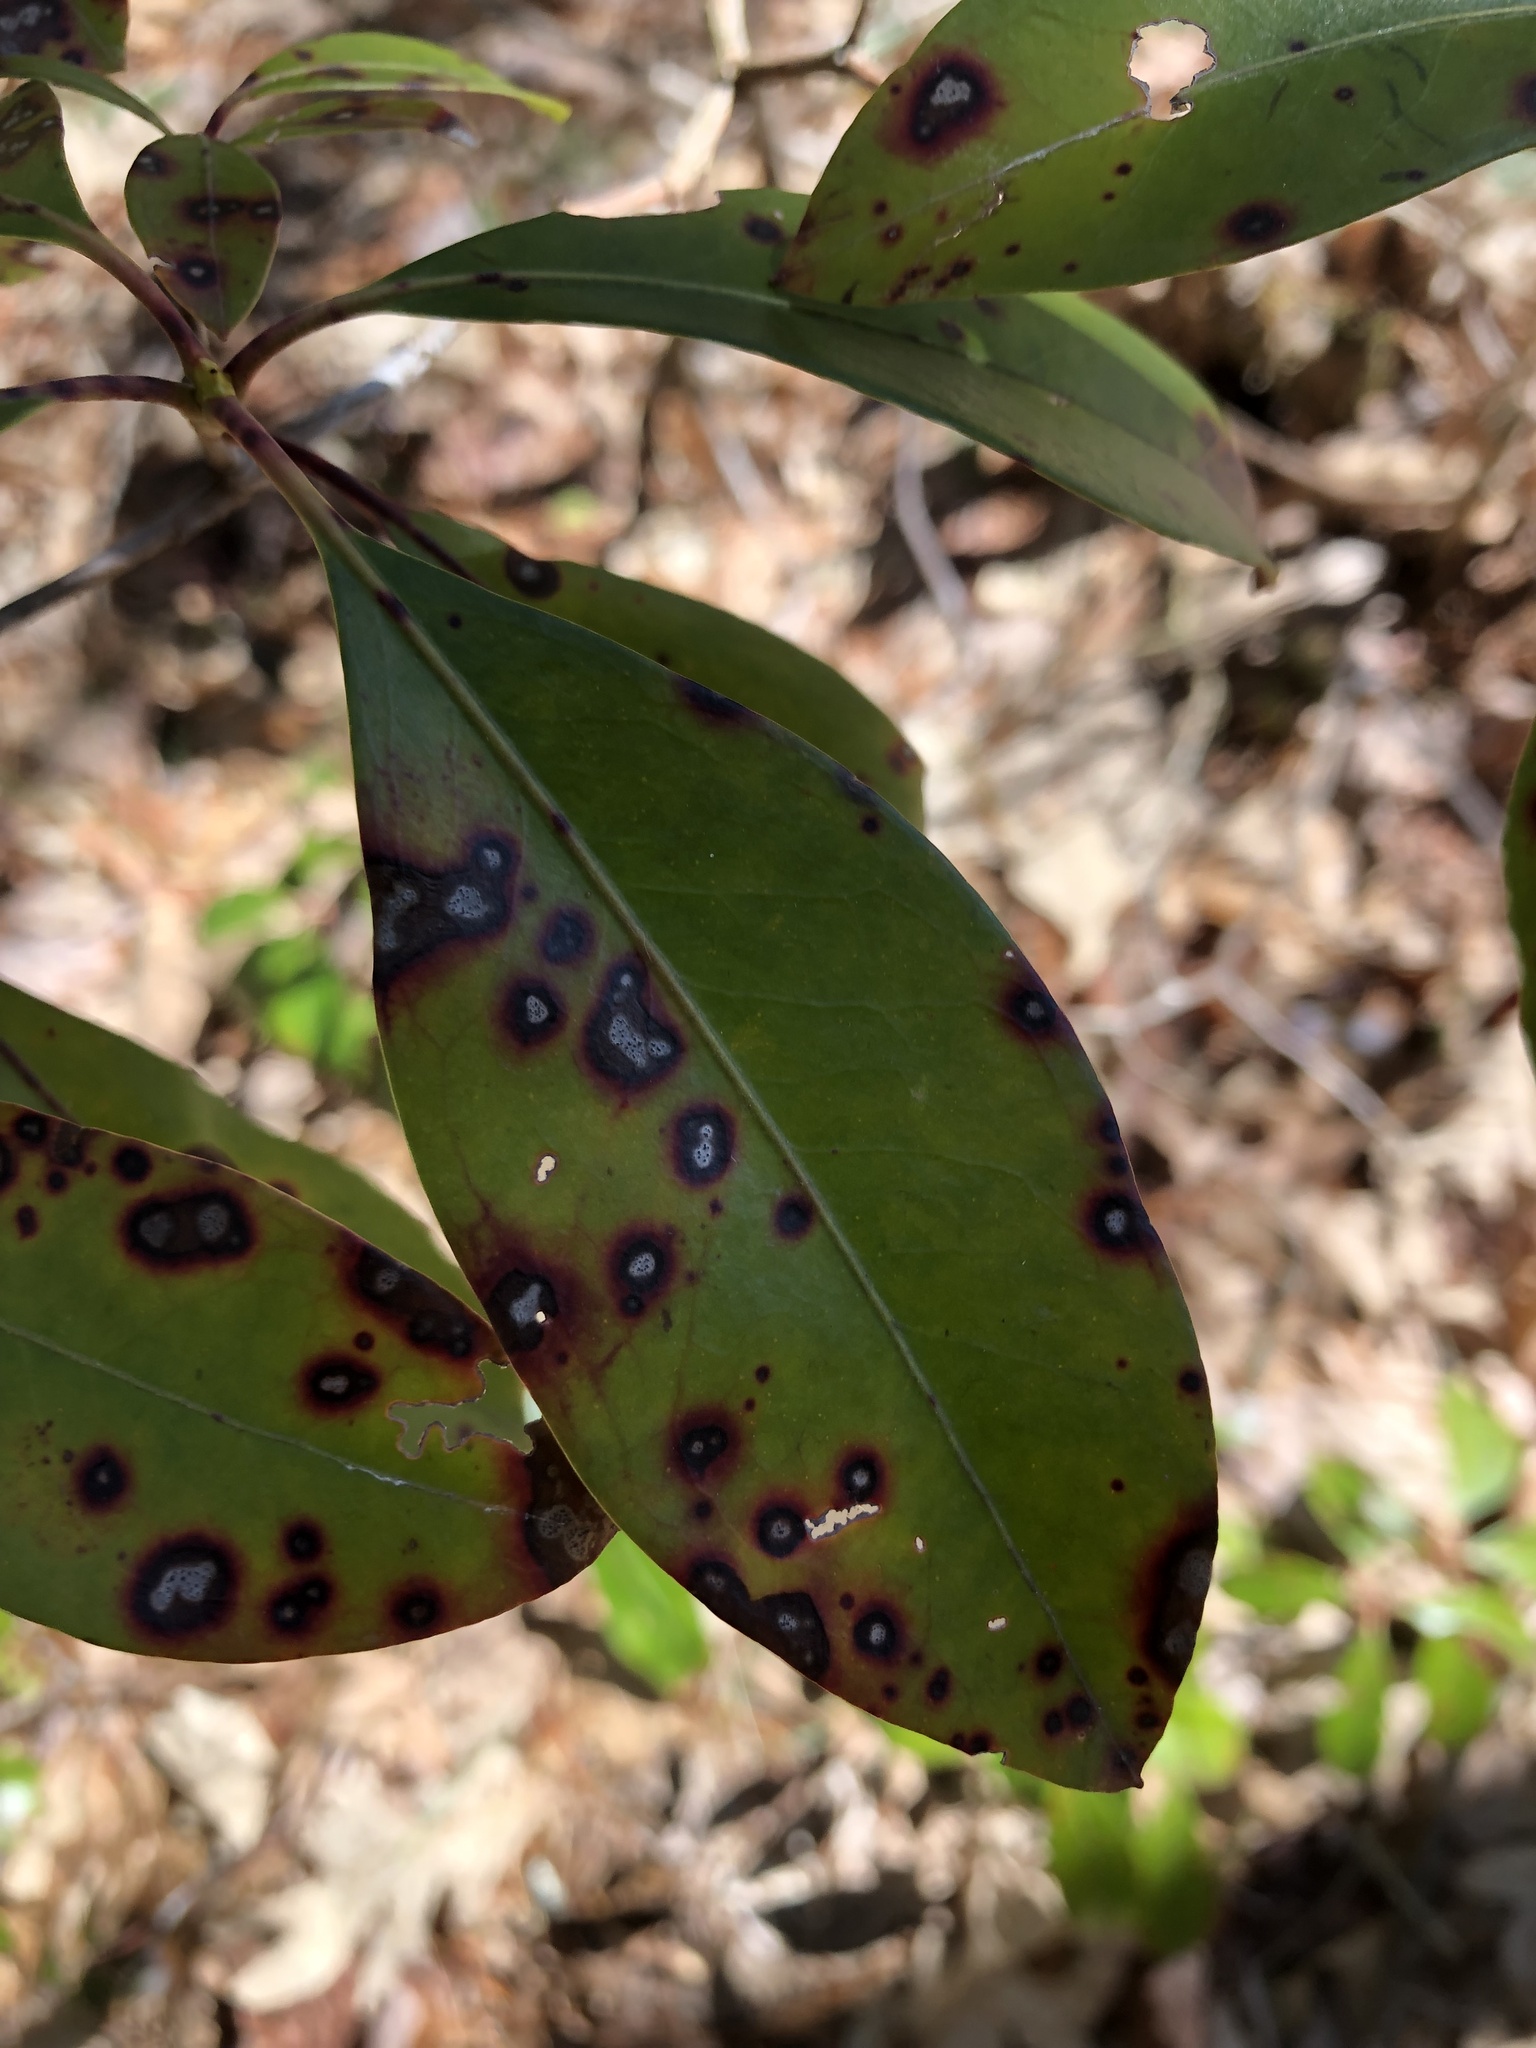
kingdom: Plantae
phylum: Tracheophyta
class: Magnoliopsida
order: Ericales
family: Ericaceae
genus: Kalmia
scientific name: Kalmia latifolia
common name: Mountain-laurel
